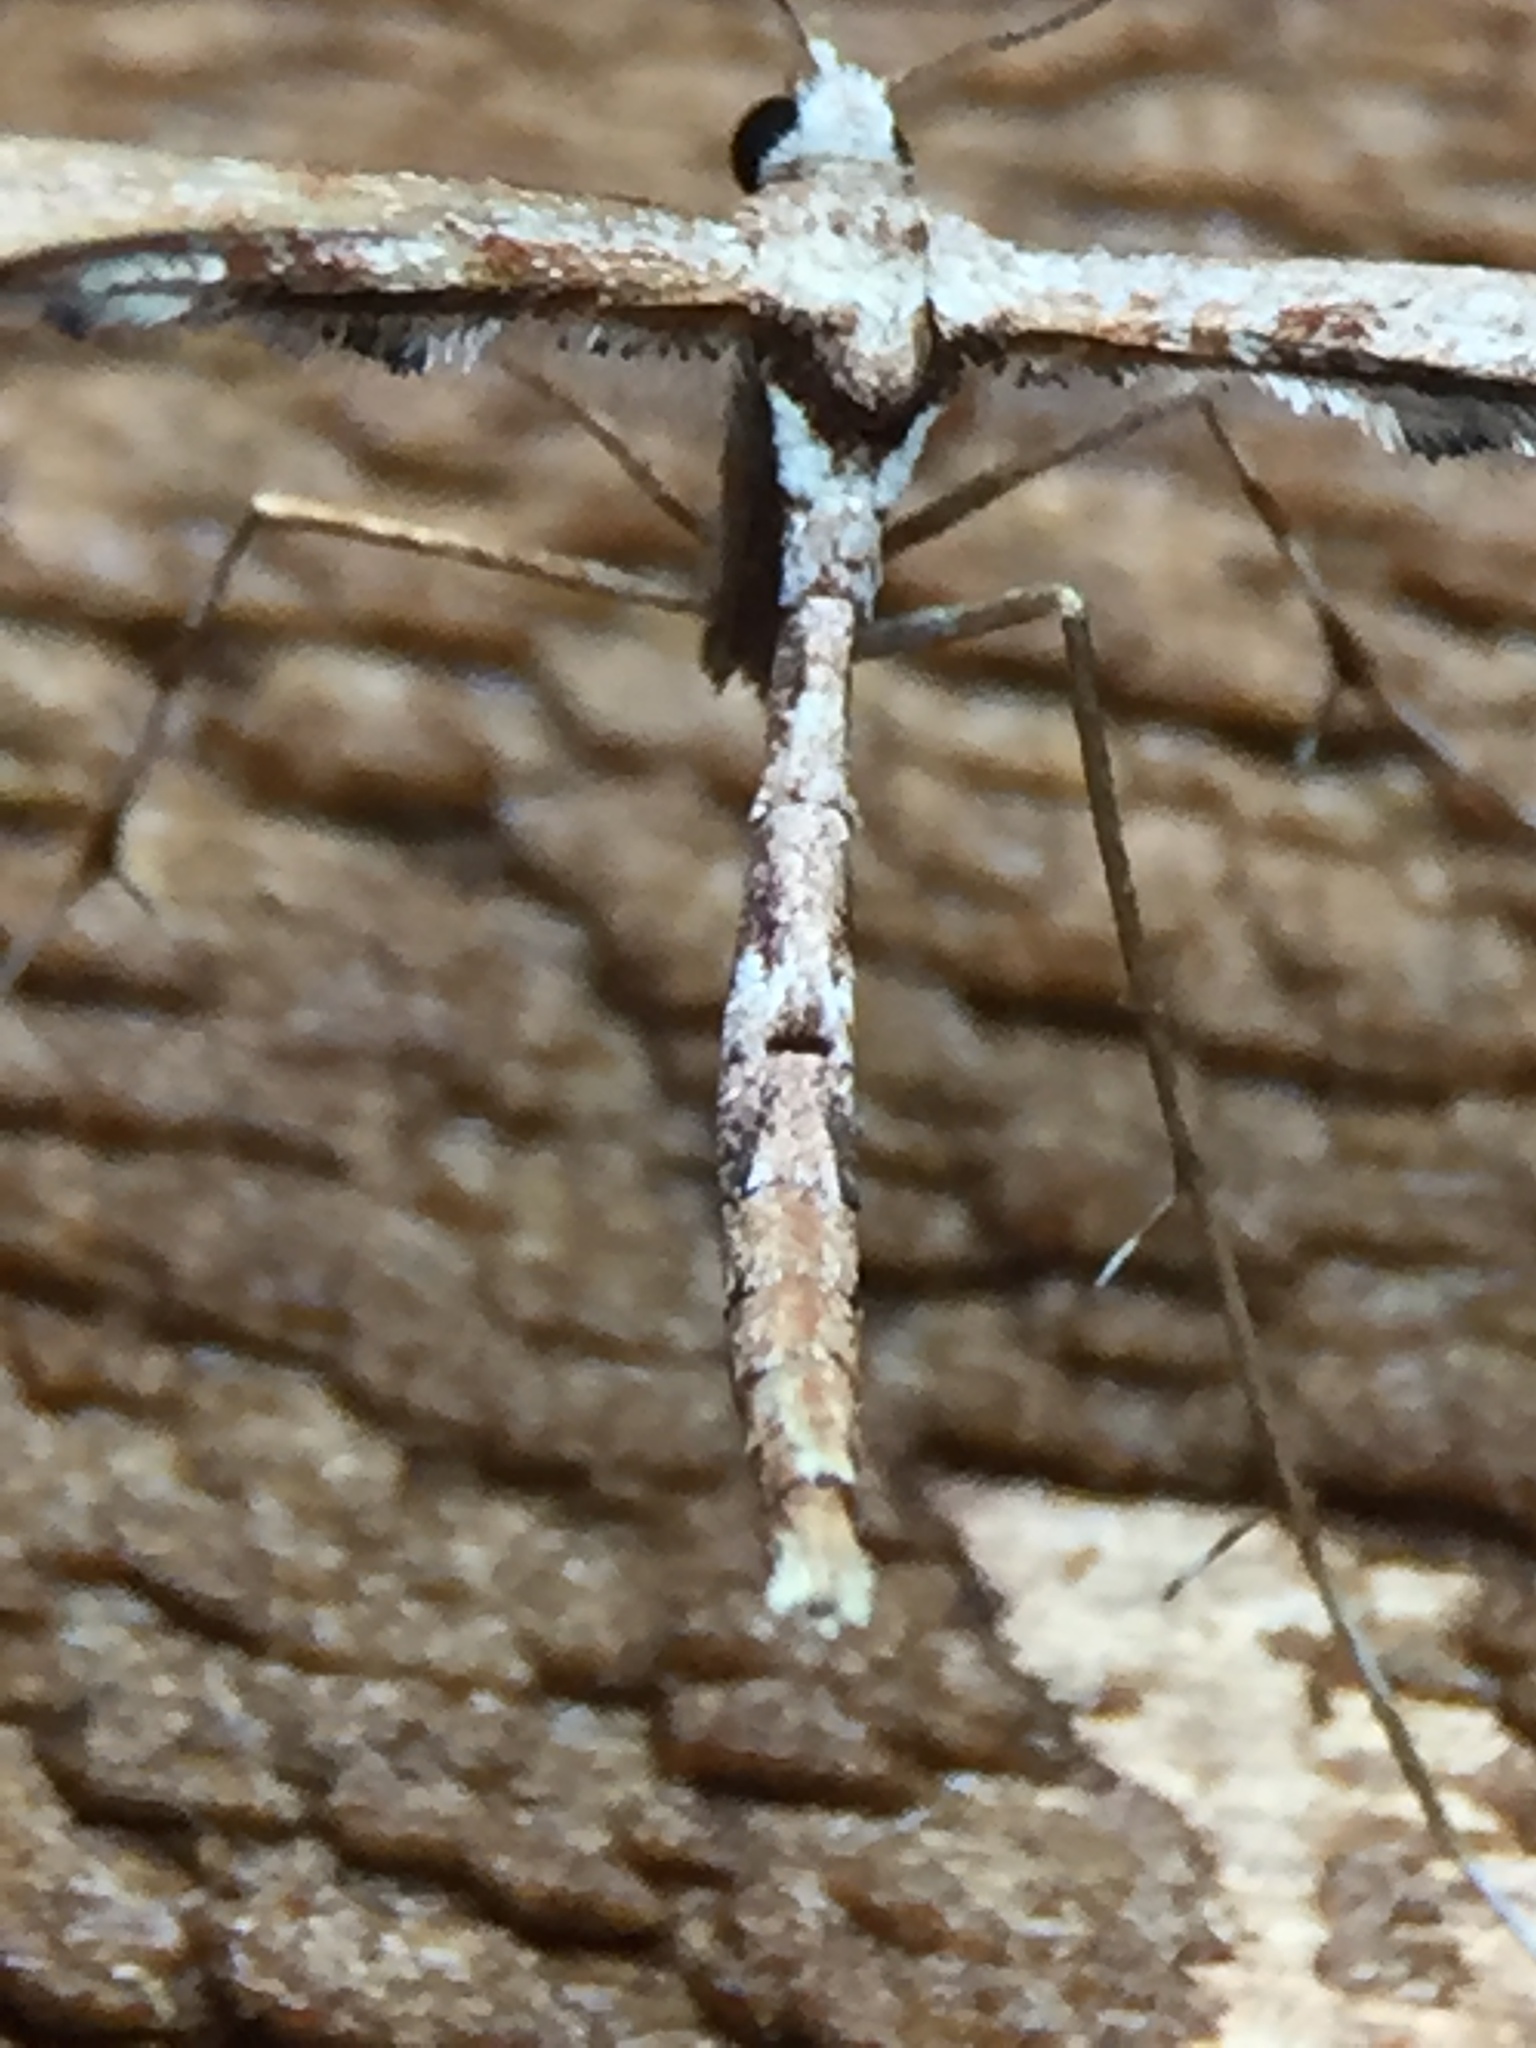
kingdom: Animalia
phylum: Arthropoda
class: Insecta
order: Lepidoptera
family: Pterophoridae
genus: Amblyptilia
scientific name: Amblyptilia falcatalis
